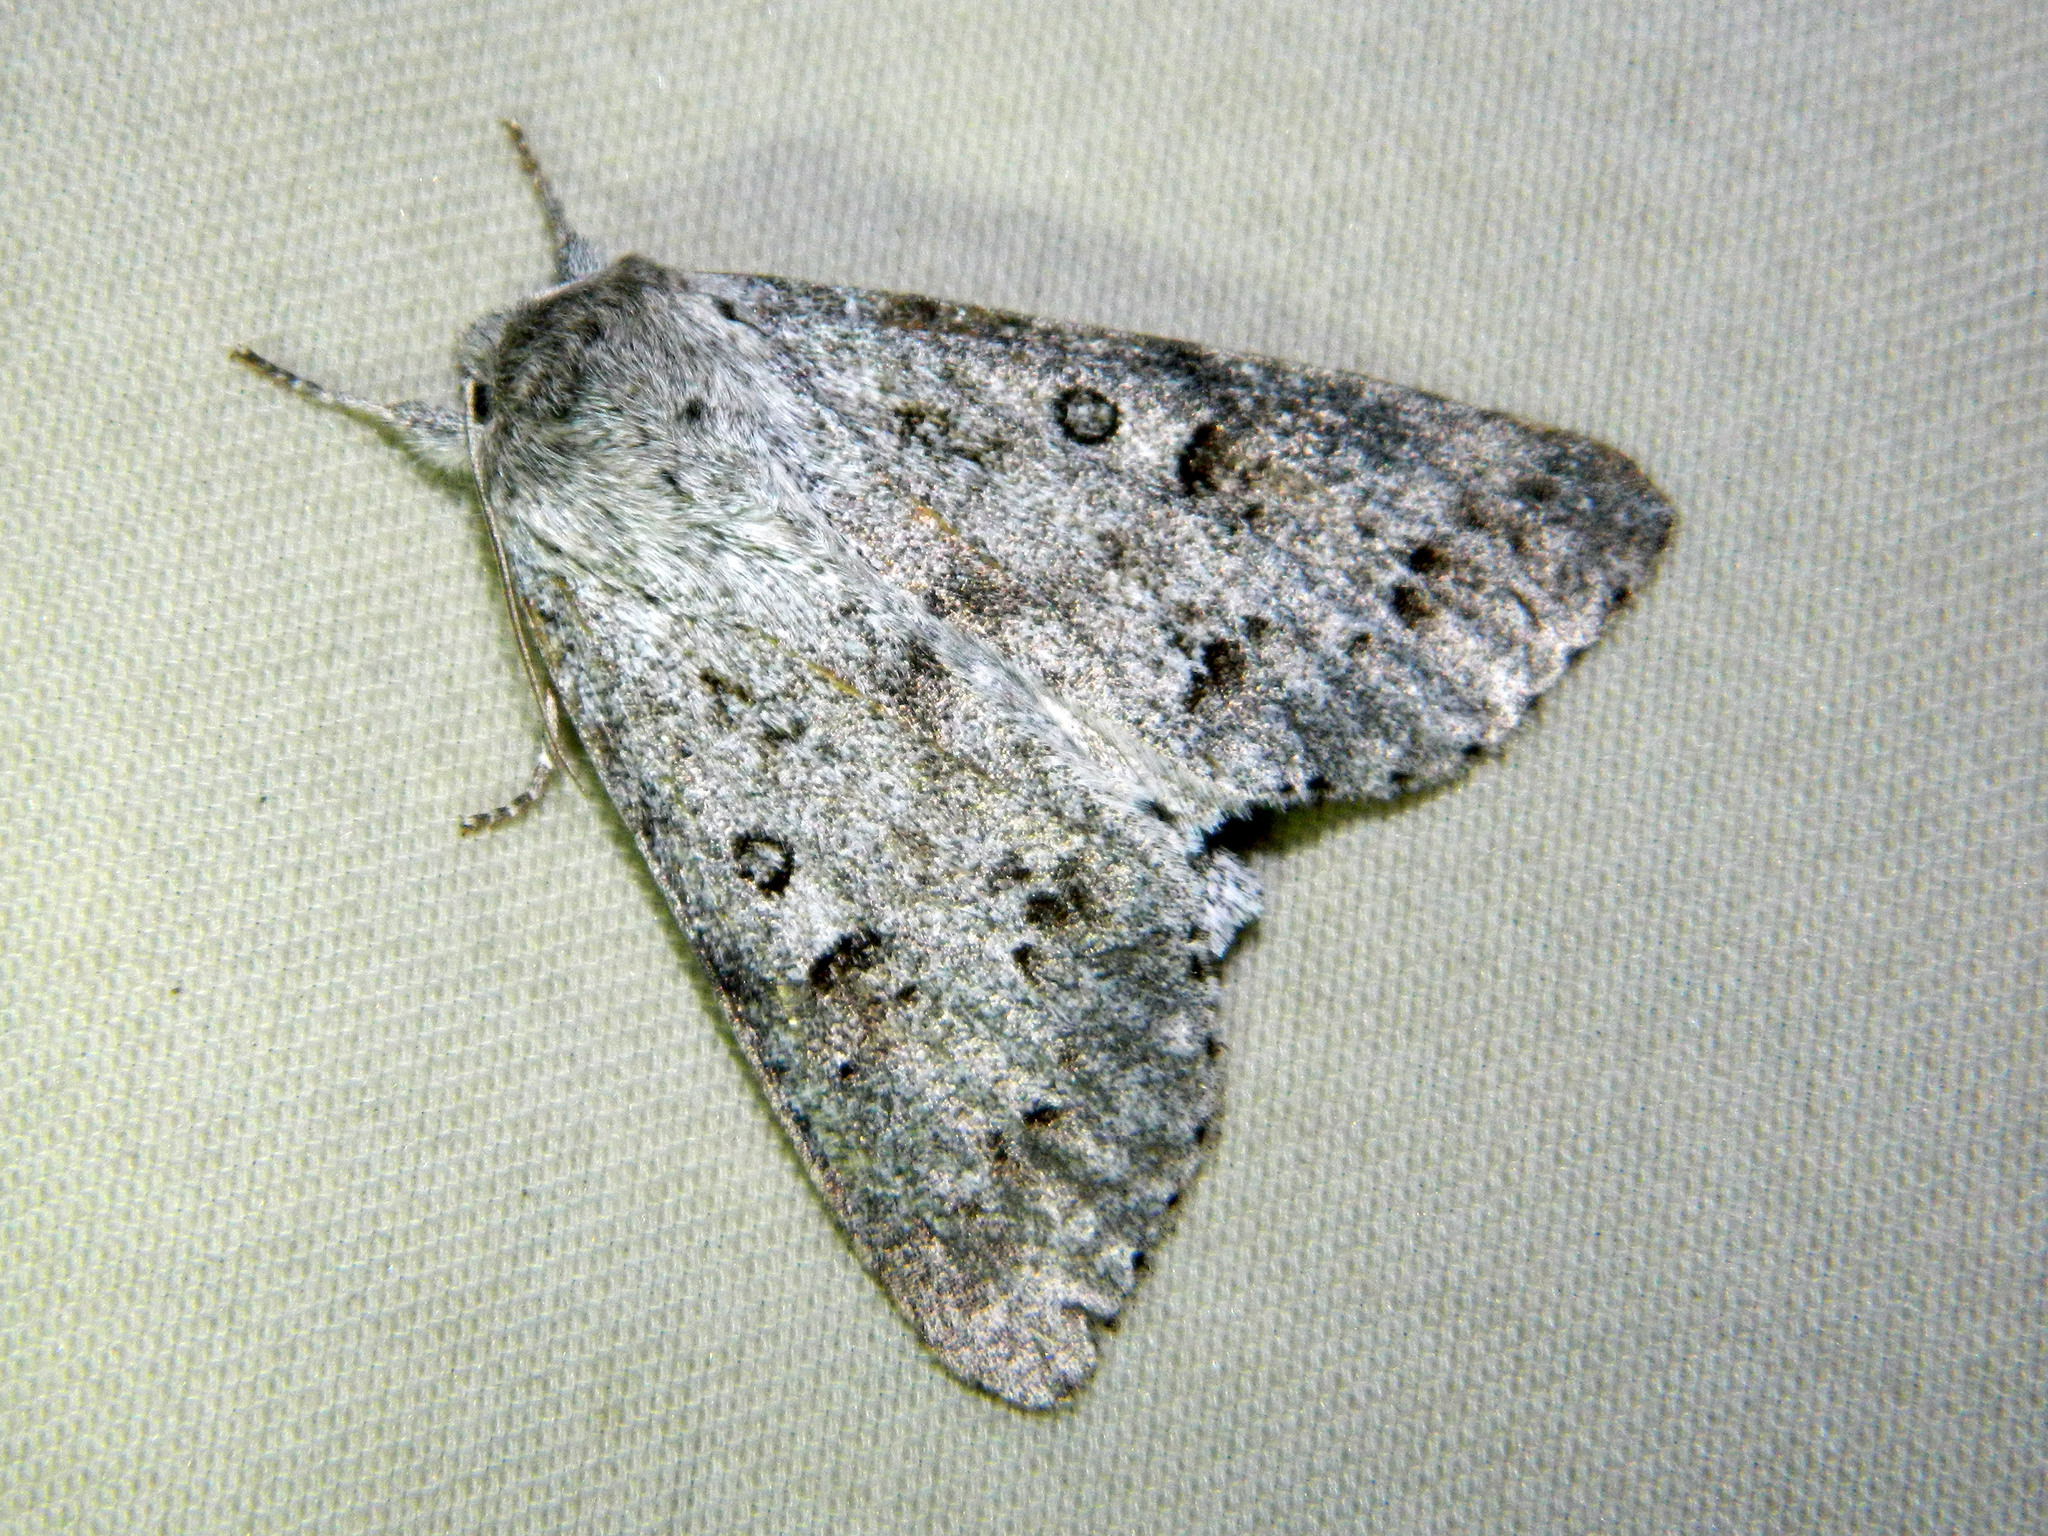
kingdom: Animalia
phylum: Arthropoda
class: Insecta
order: Lepidoptera
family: Noctuidae
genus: Acronicta
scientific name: Acronicta insita
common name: Large gray dagger
